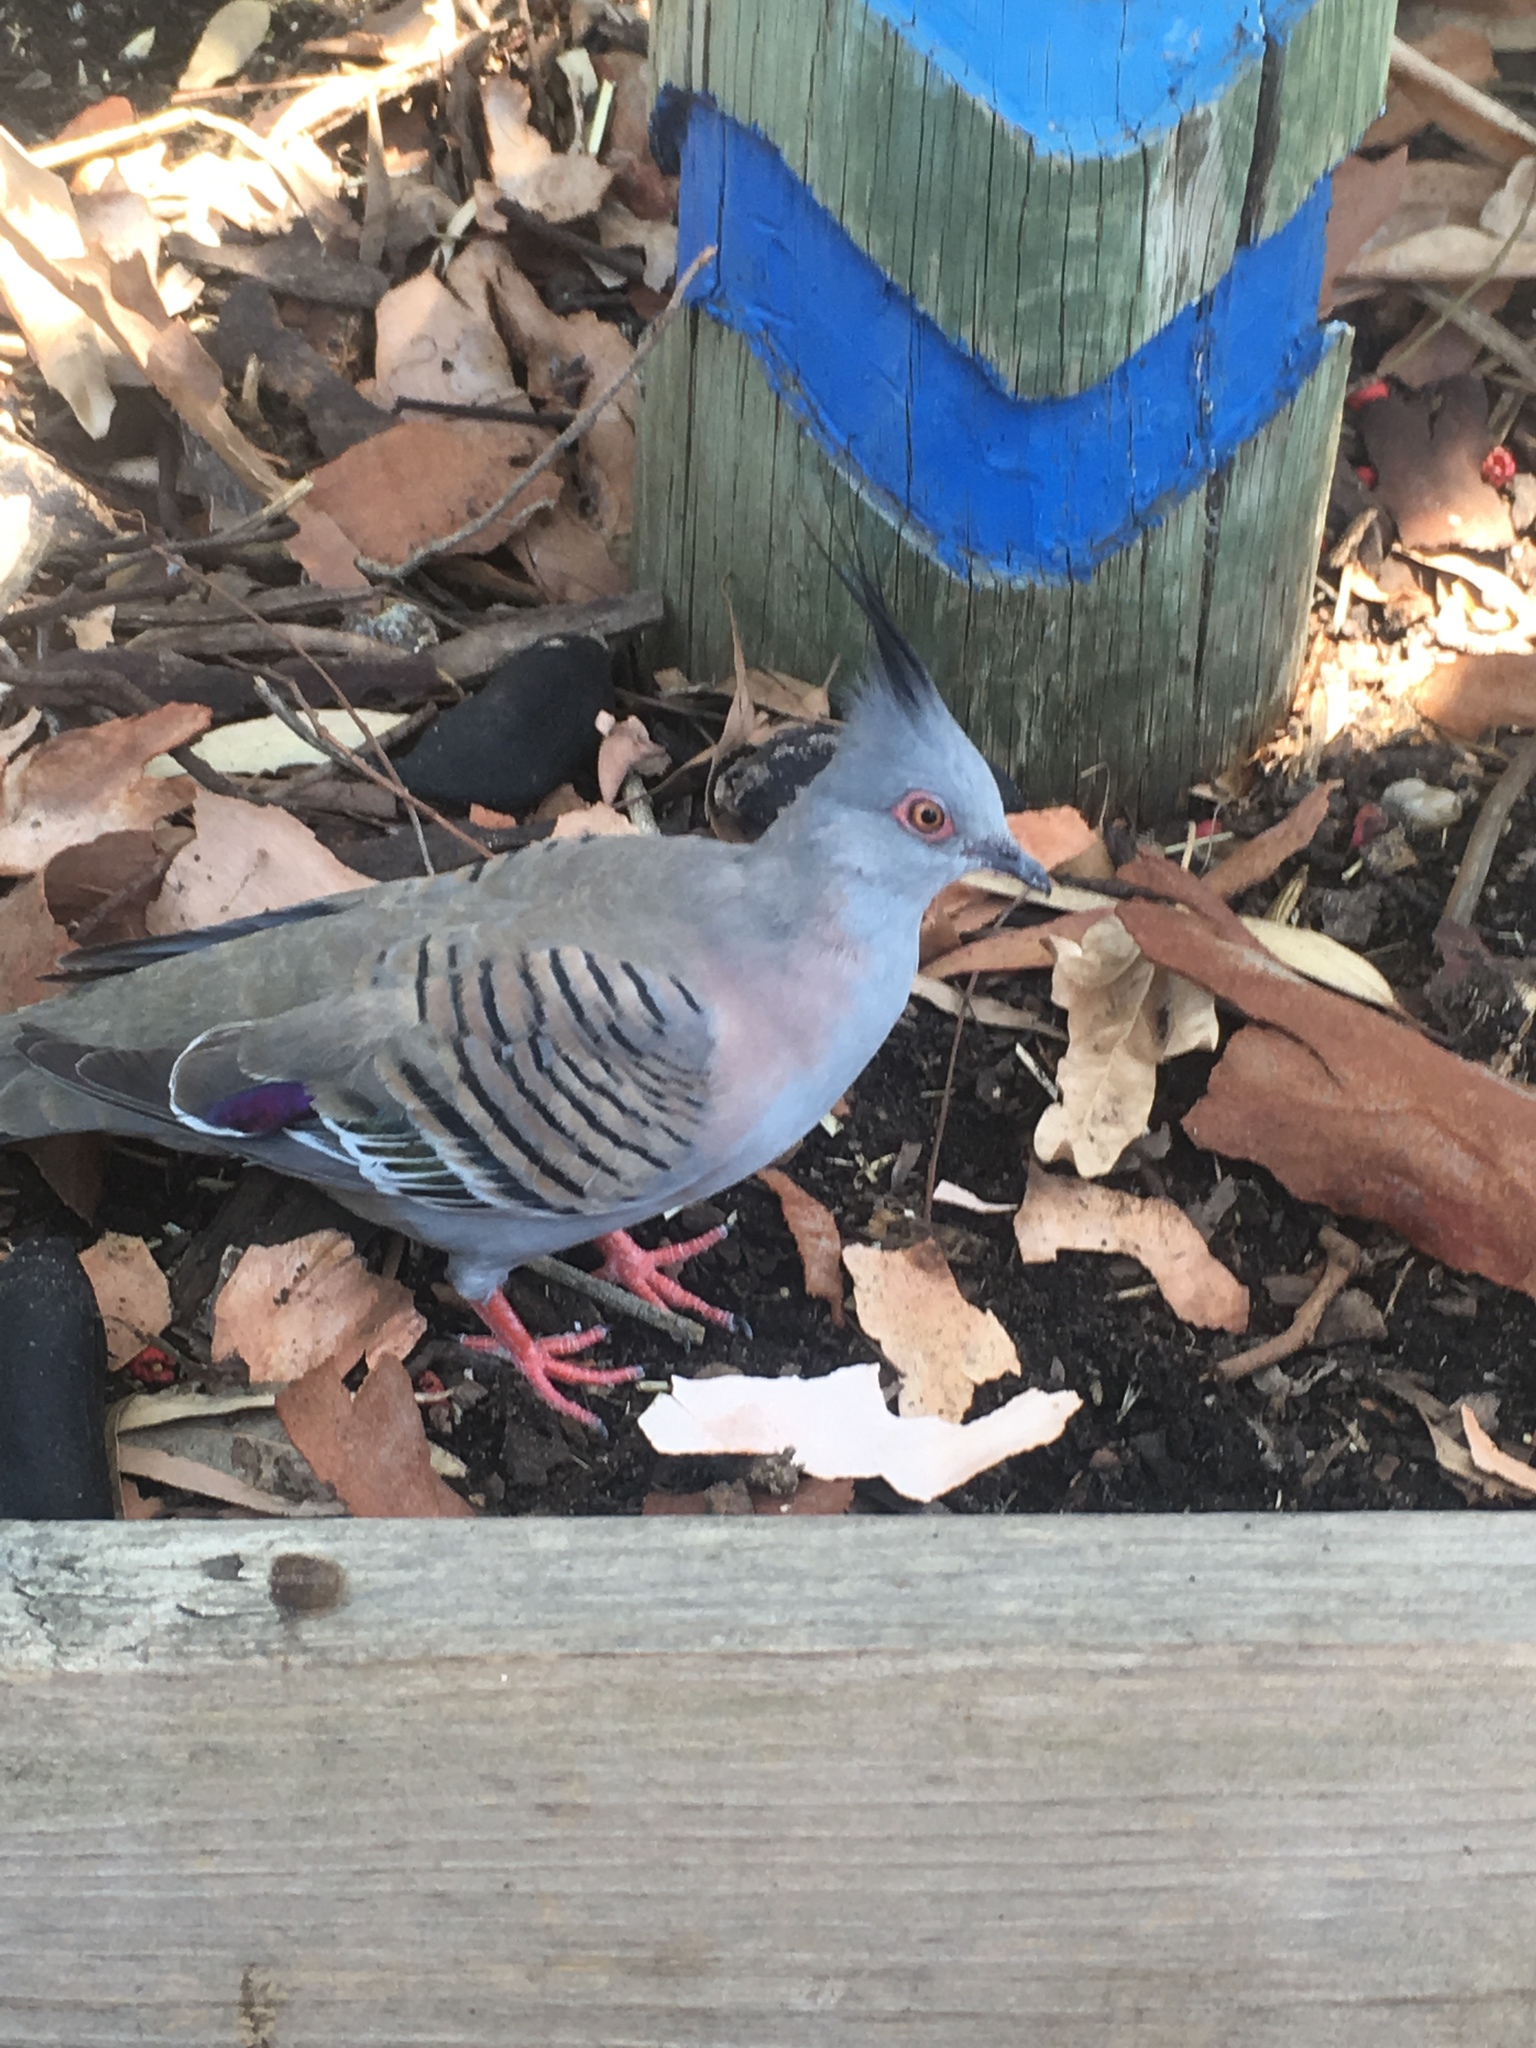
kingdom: Animalia
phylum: Chordata
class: Aves
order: Columbiformes
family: Columbidae
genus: Ocyphaps
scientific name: Ocyphaps lophotes
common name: Crested pigeon
